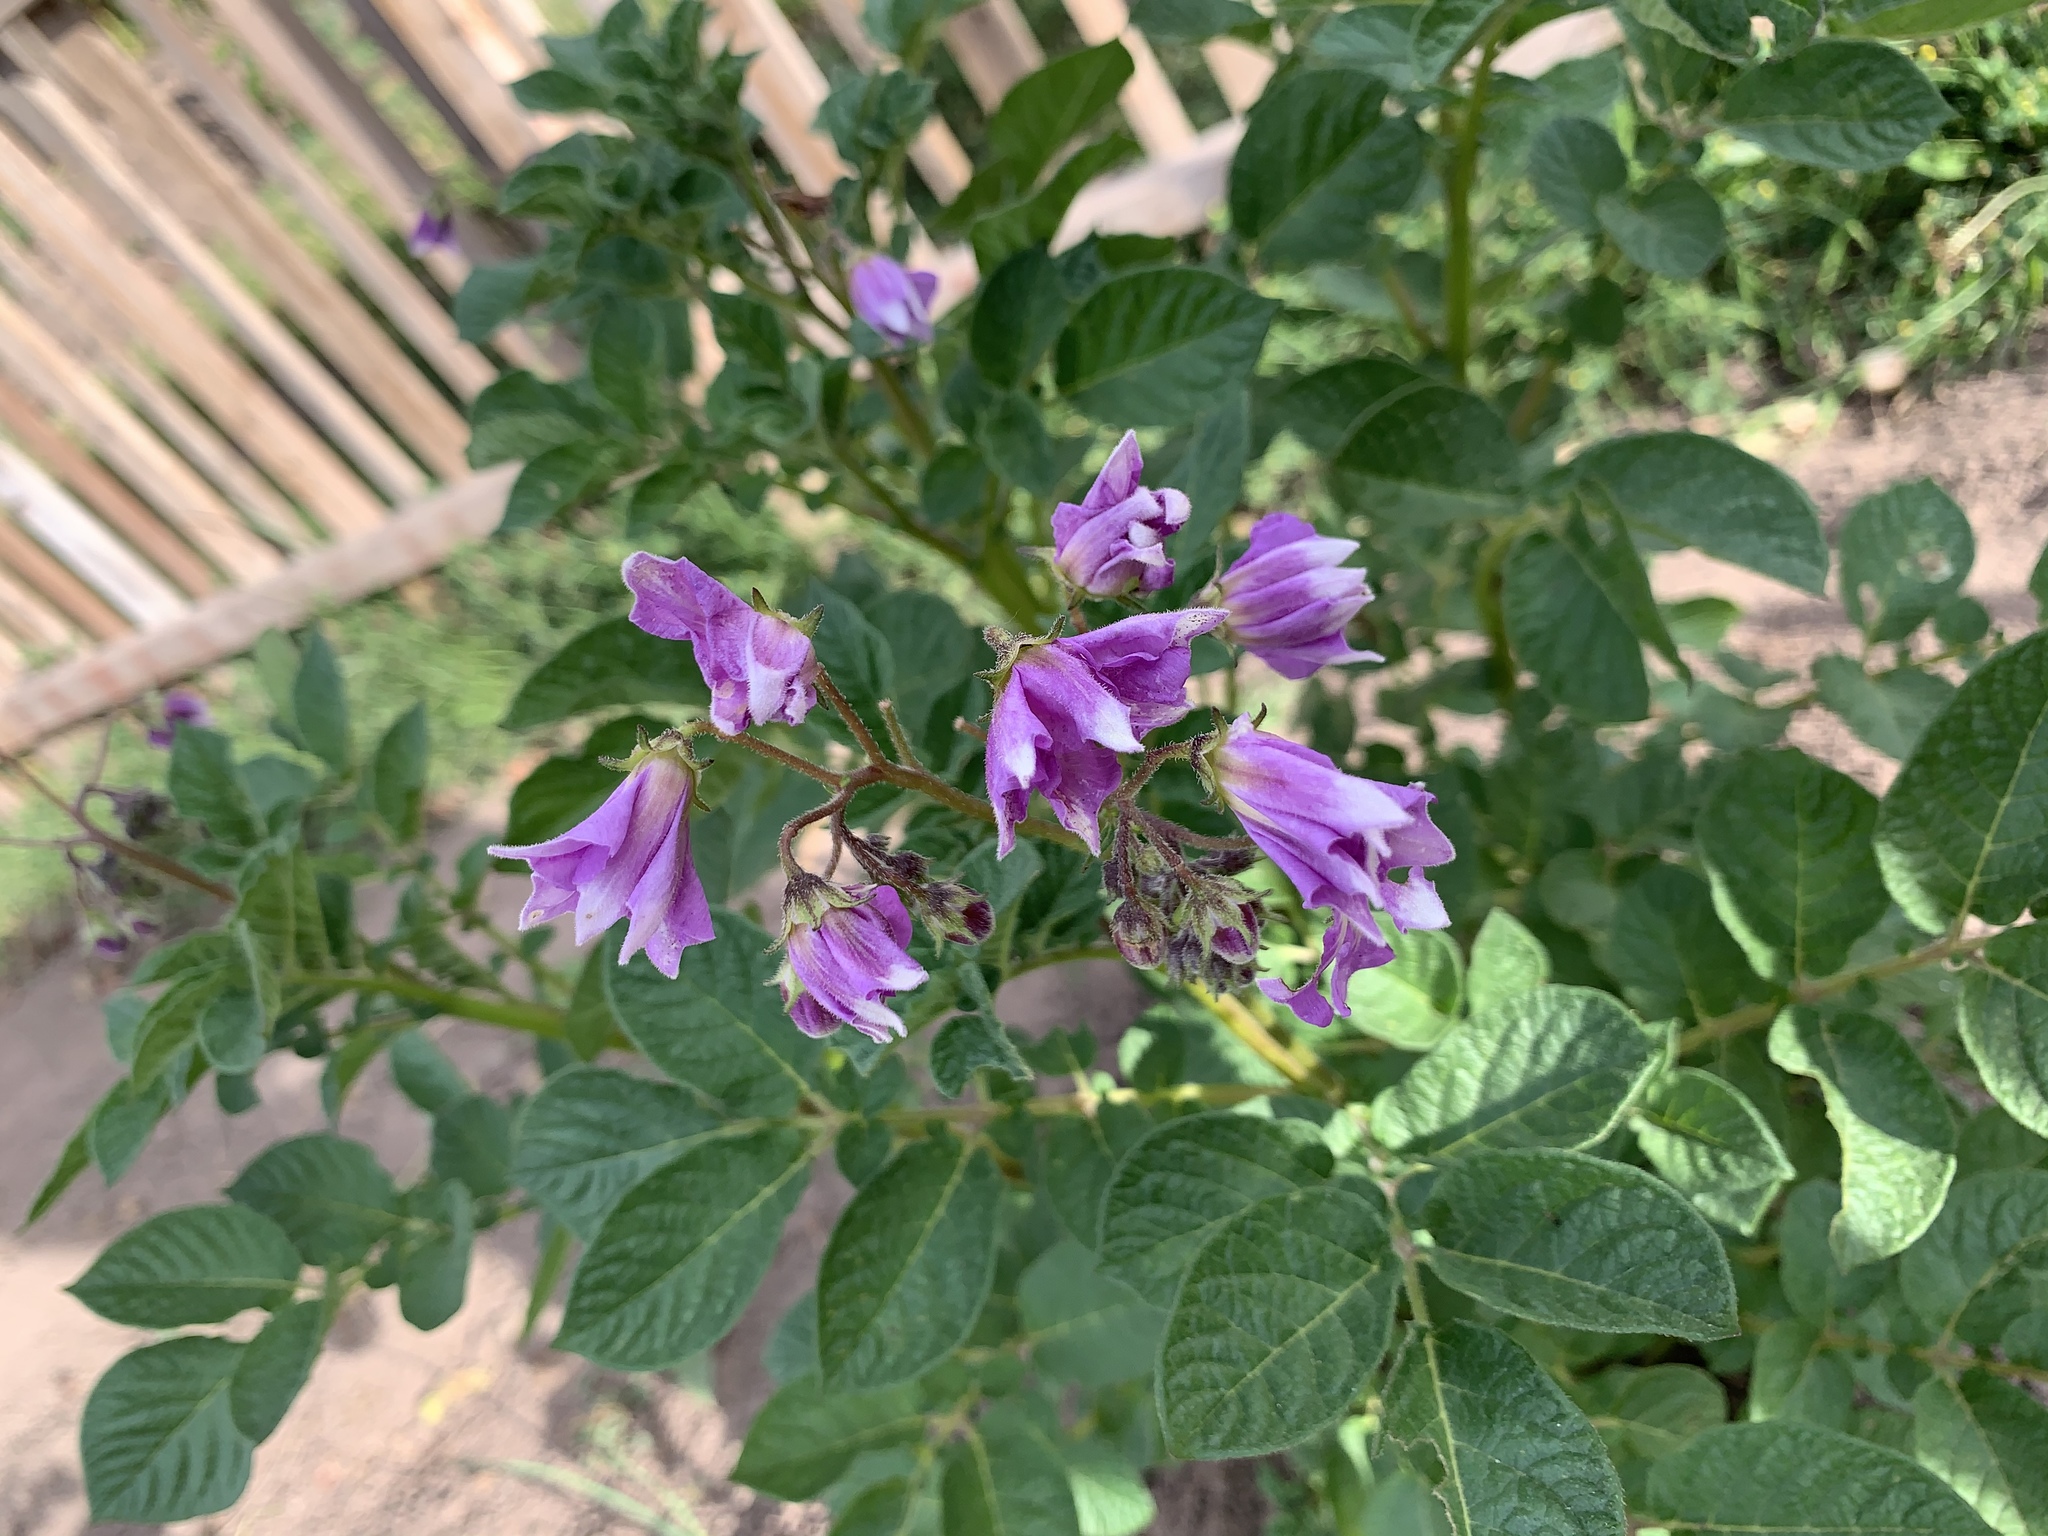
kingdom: Plantae
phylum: Tracheophyta
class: Magnoliopsida
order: Solanales
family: Solanaceae
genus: Solanum
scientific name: Solanum tuberosum
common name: Potato
